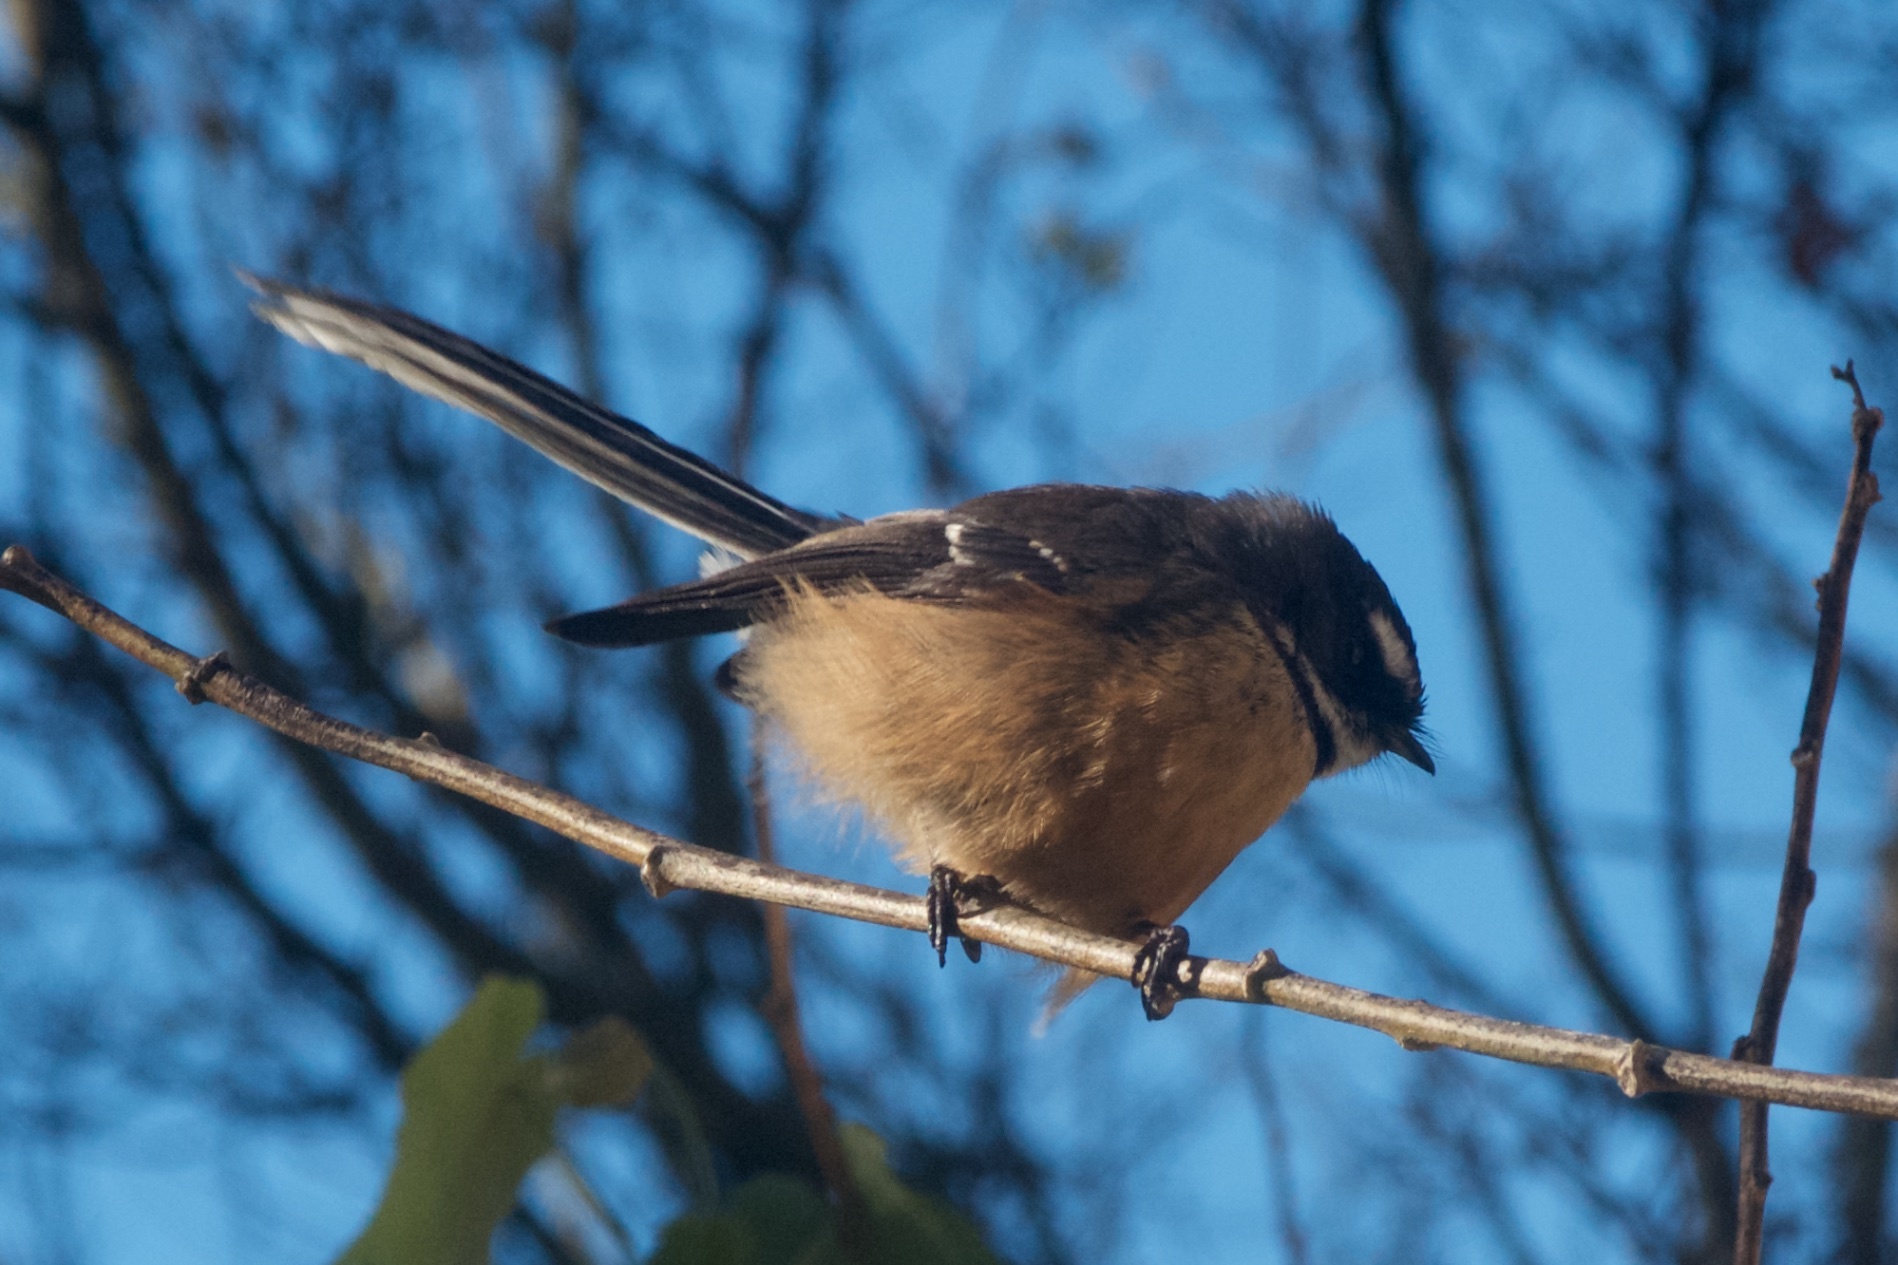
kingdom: Animalia
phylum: Chordata
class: Aves
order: Passeriformes
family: Rhipiduridae
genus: Rhipidura
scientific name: Rhipidura fuliginosa
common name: New zealand fantail
